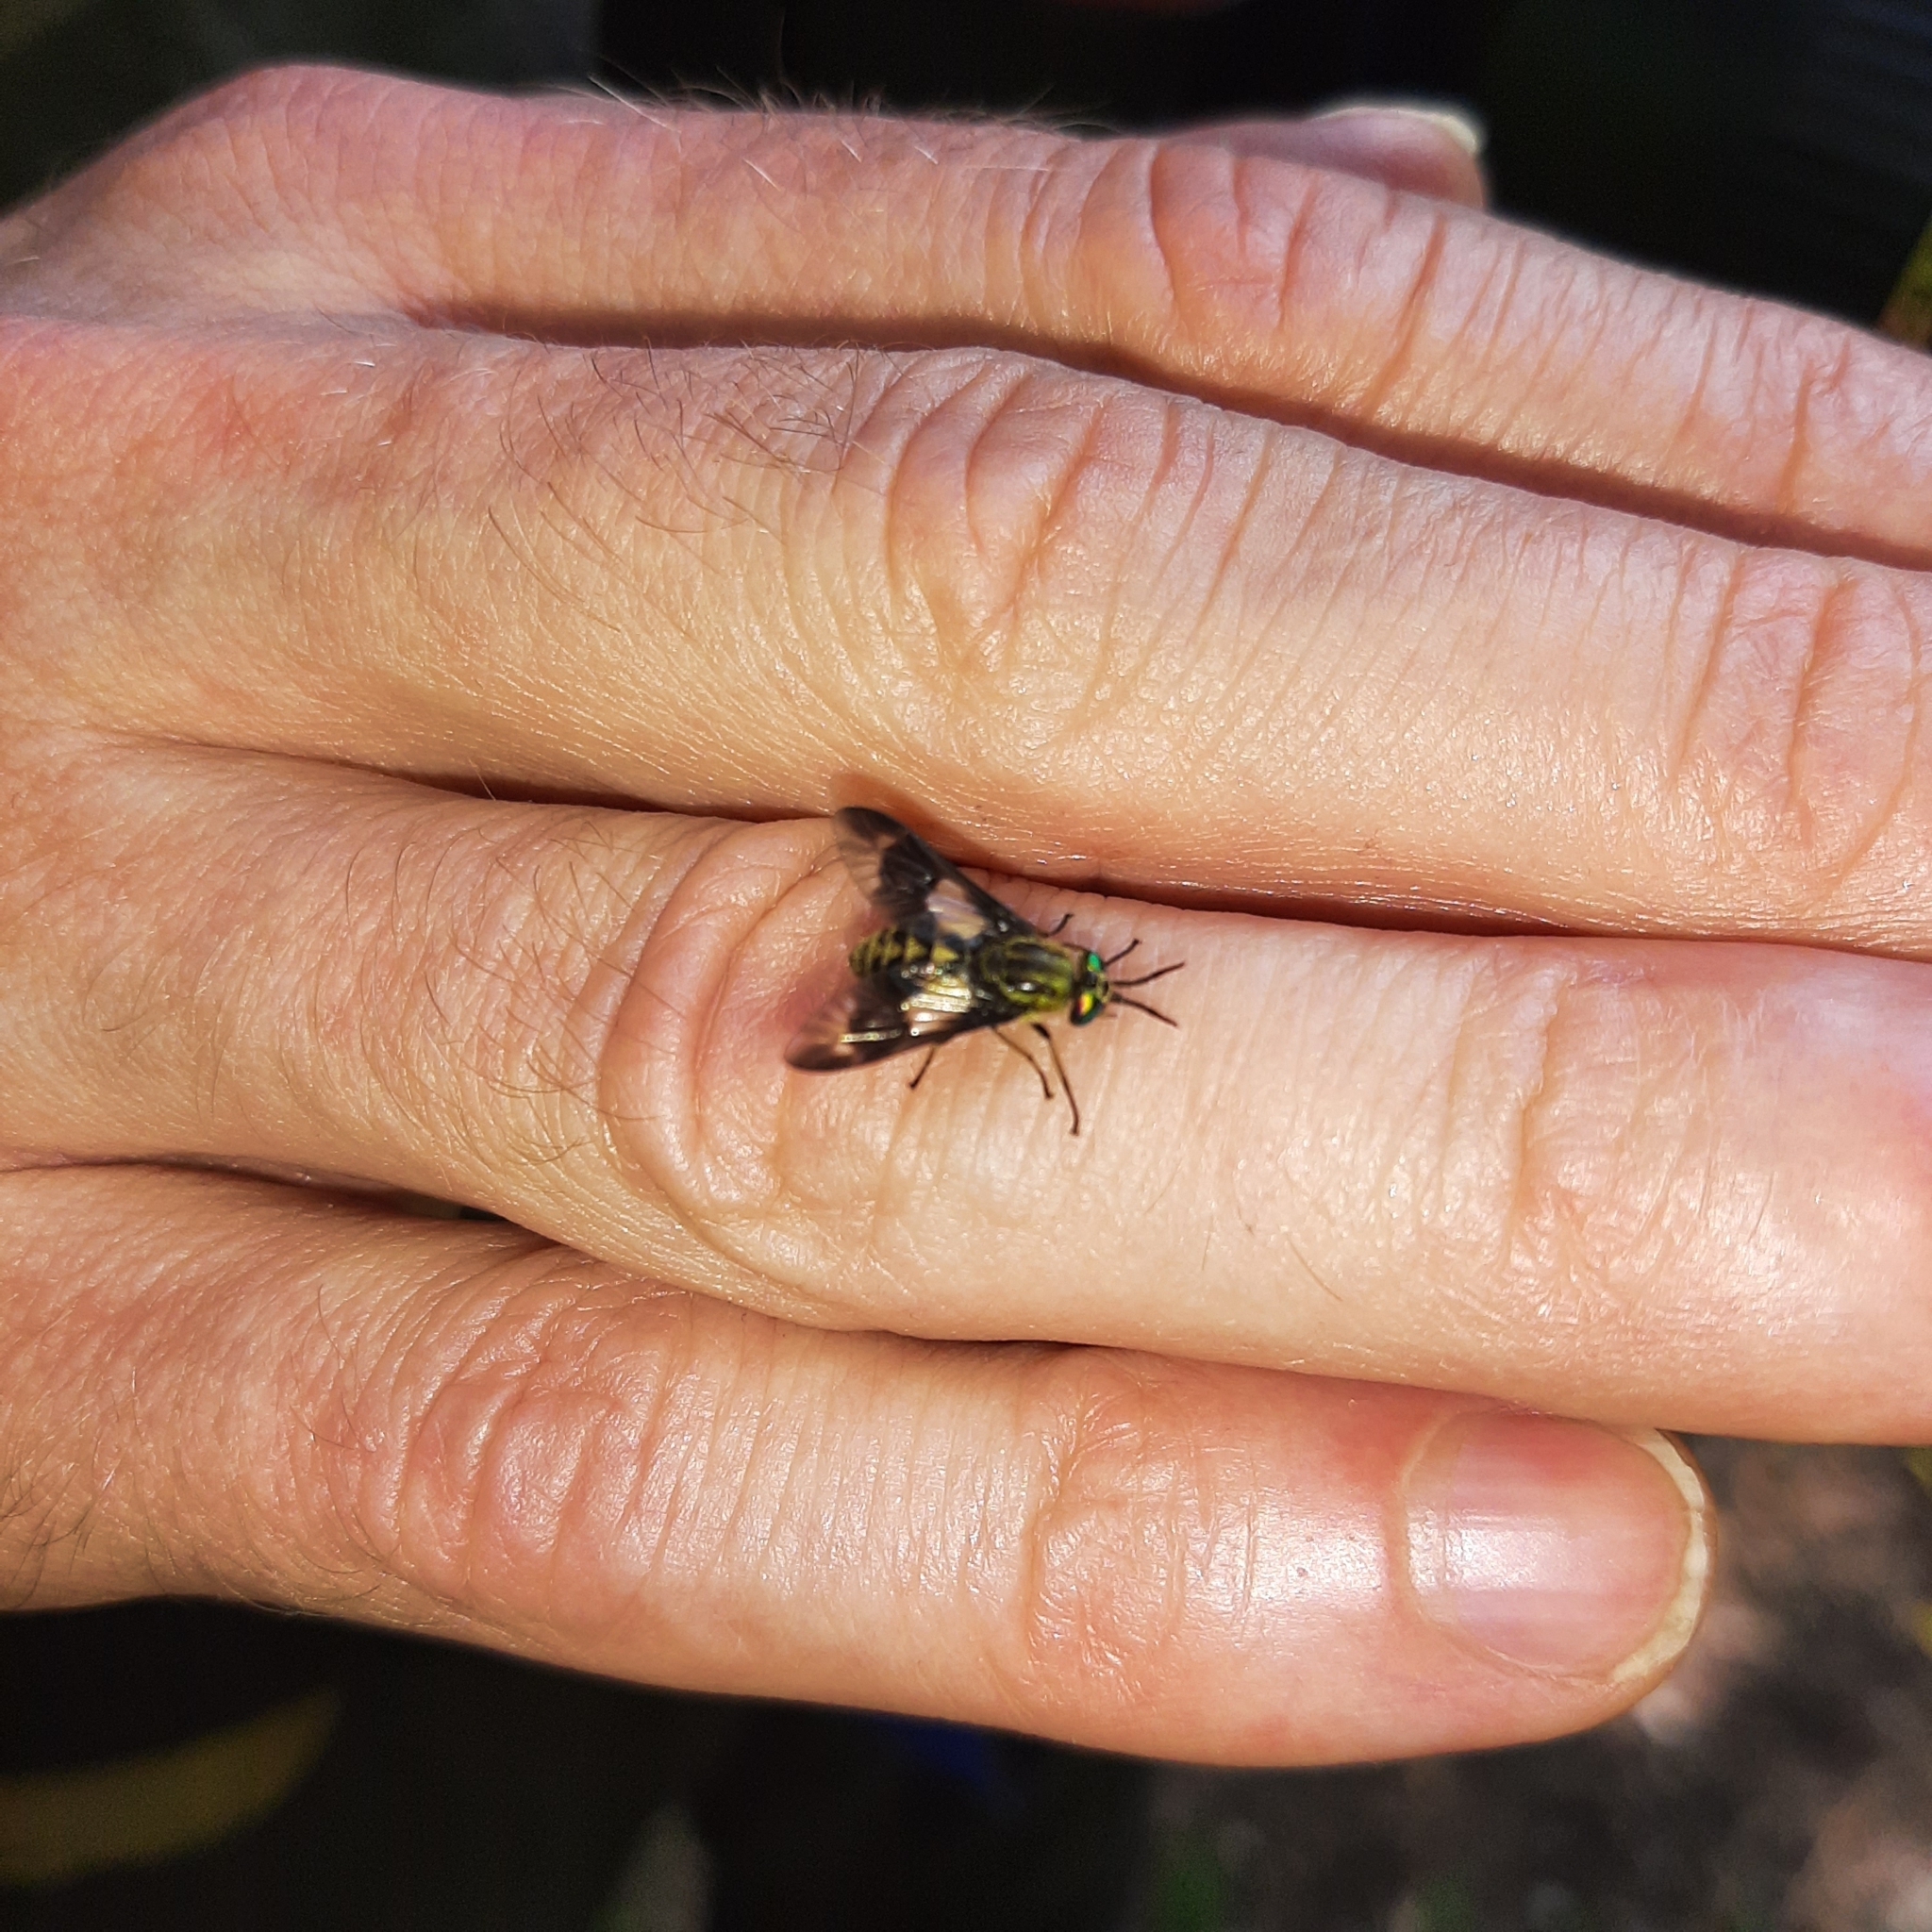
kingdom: Animalia
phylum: Arthropoda
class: Insecta
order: Diptera
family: Tabanidae
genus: Chrysops
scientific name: Chrysops relictus
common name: Twin-lobed deerfly
